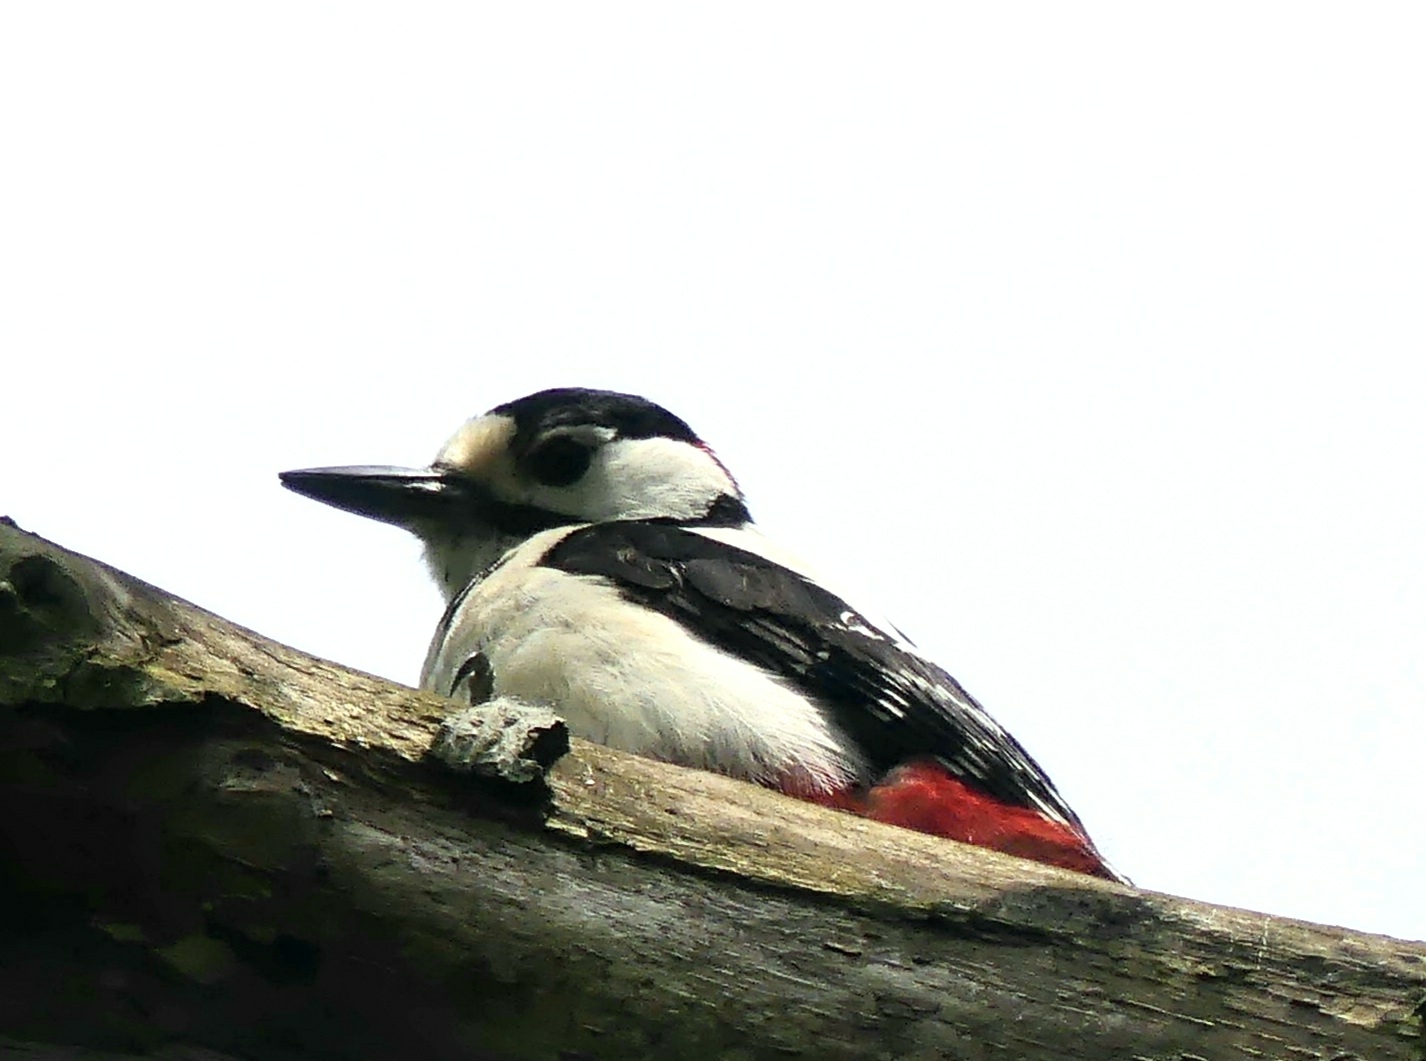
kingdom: Animalia
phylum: Chordata
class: Aves
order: Piciformes
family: Picidae
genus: Dendrocopos
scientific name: Dendrocopos major
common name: Great spotted woodpecker
